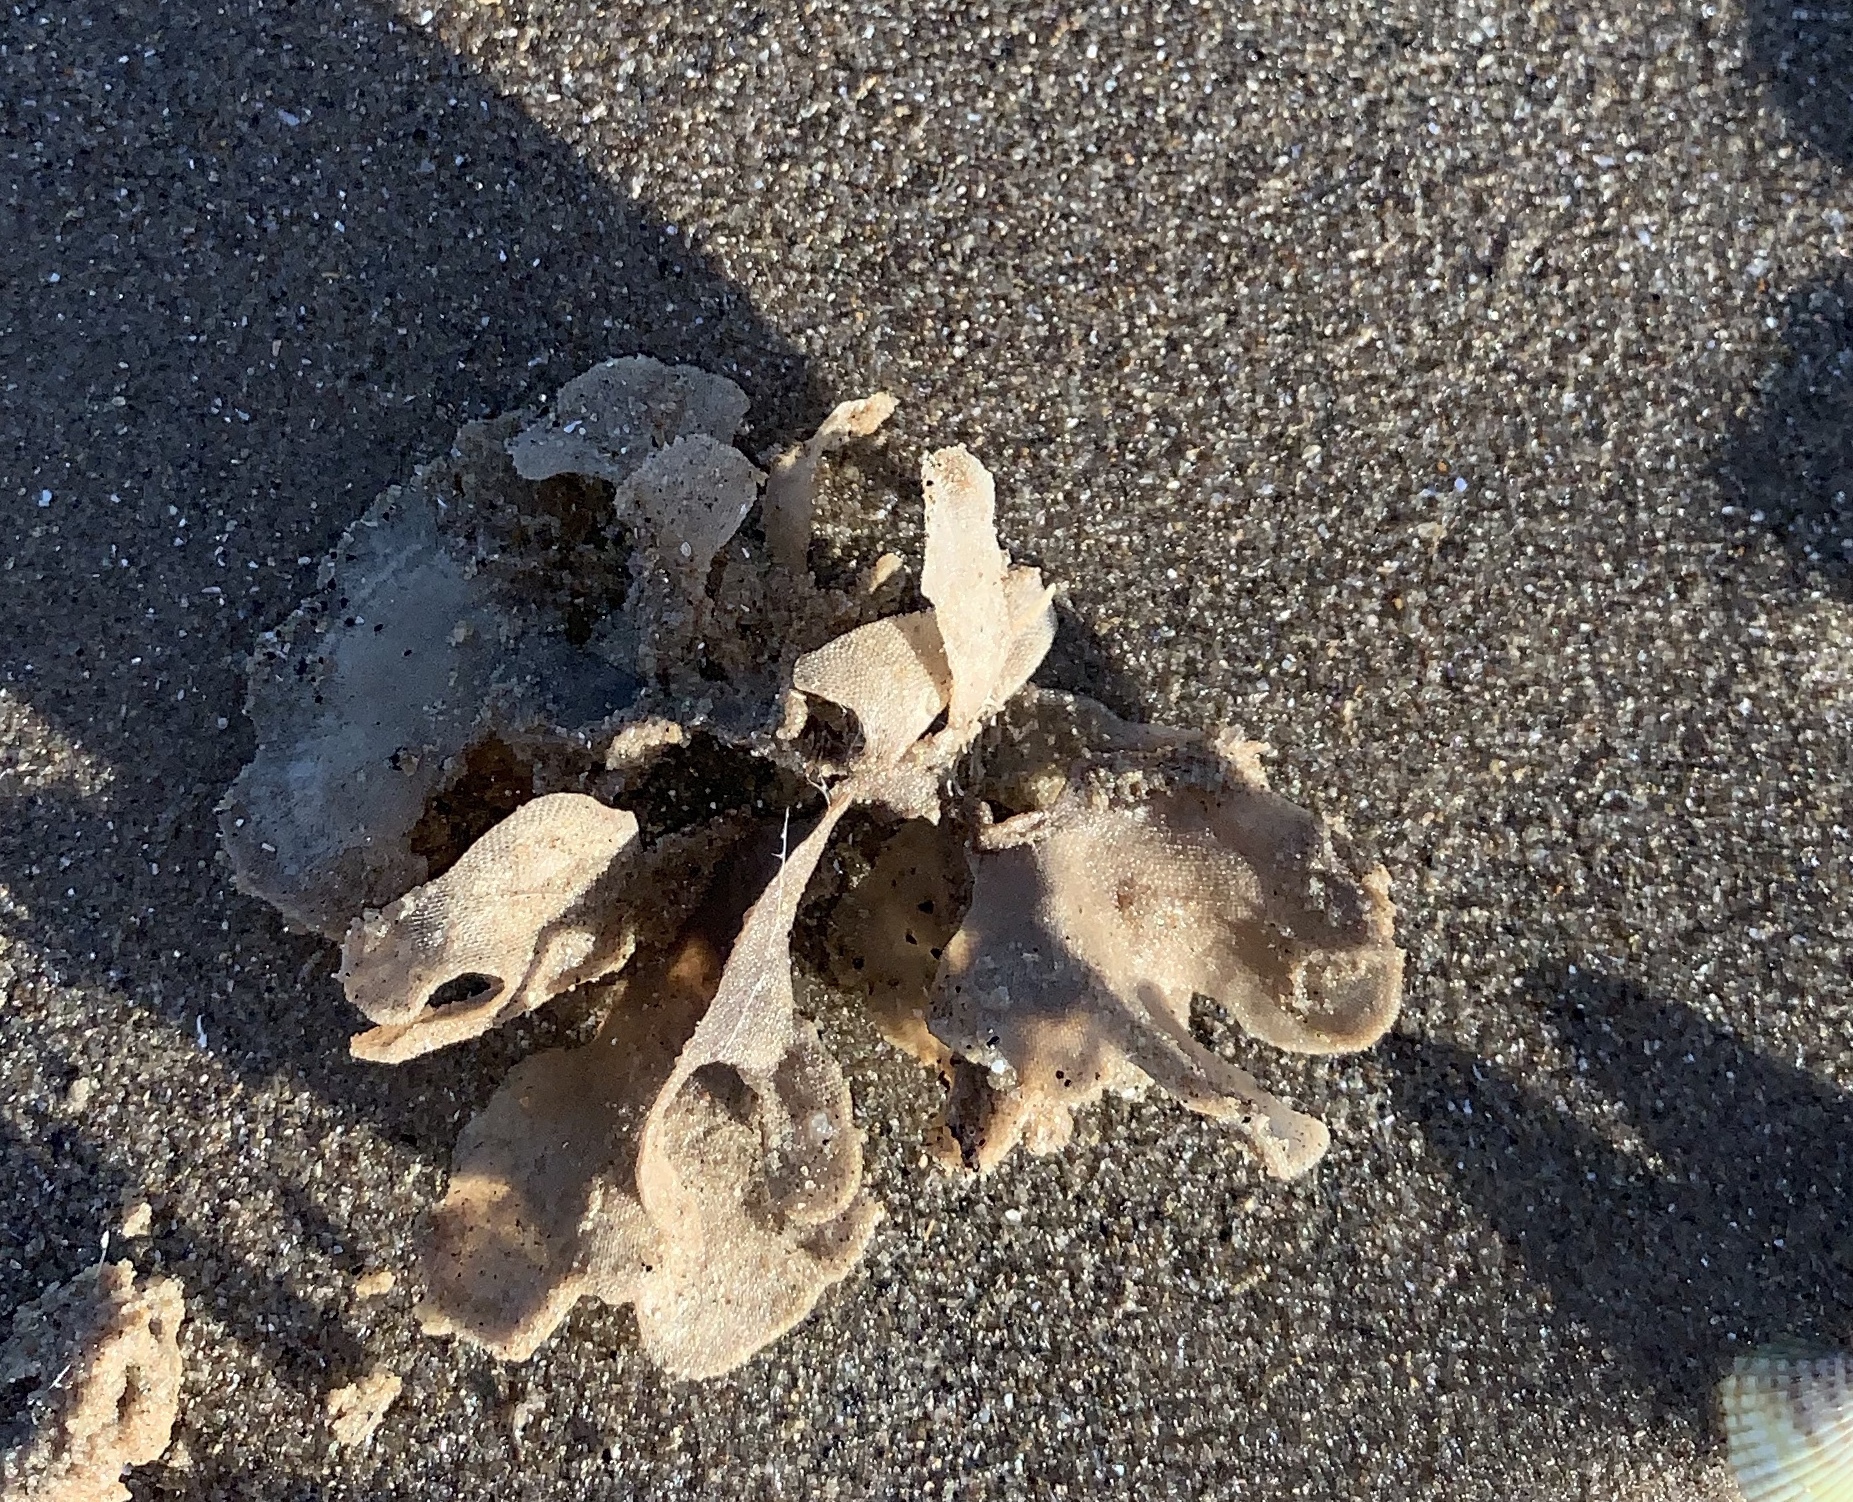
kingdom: Animalia
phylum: Bryozoa
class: Gymnolaemata
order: Cheilostomatida
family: Flustridae
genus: Flustra
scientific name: Flustra foliacea
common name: Hornwrack
